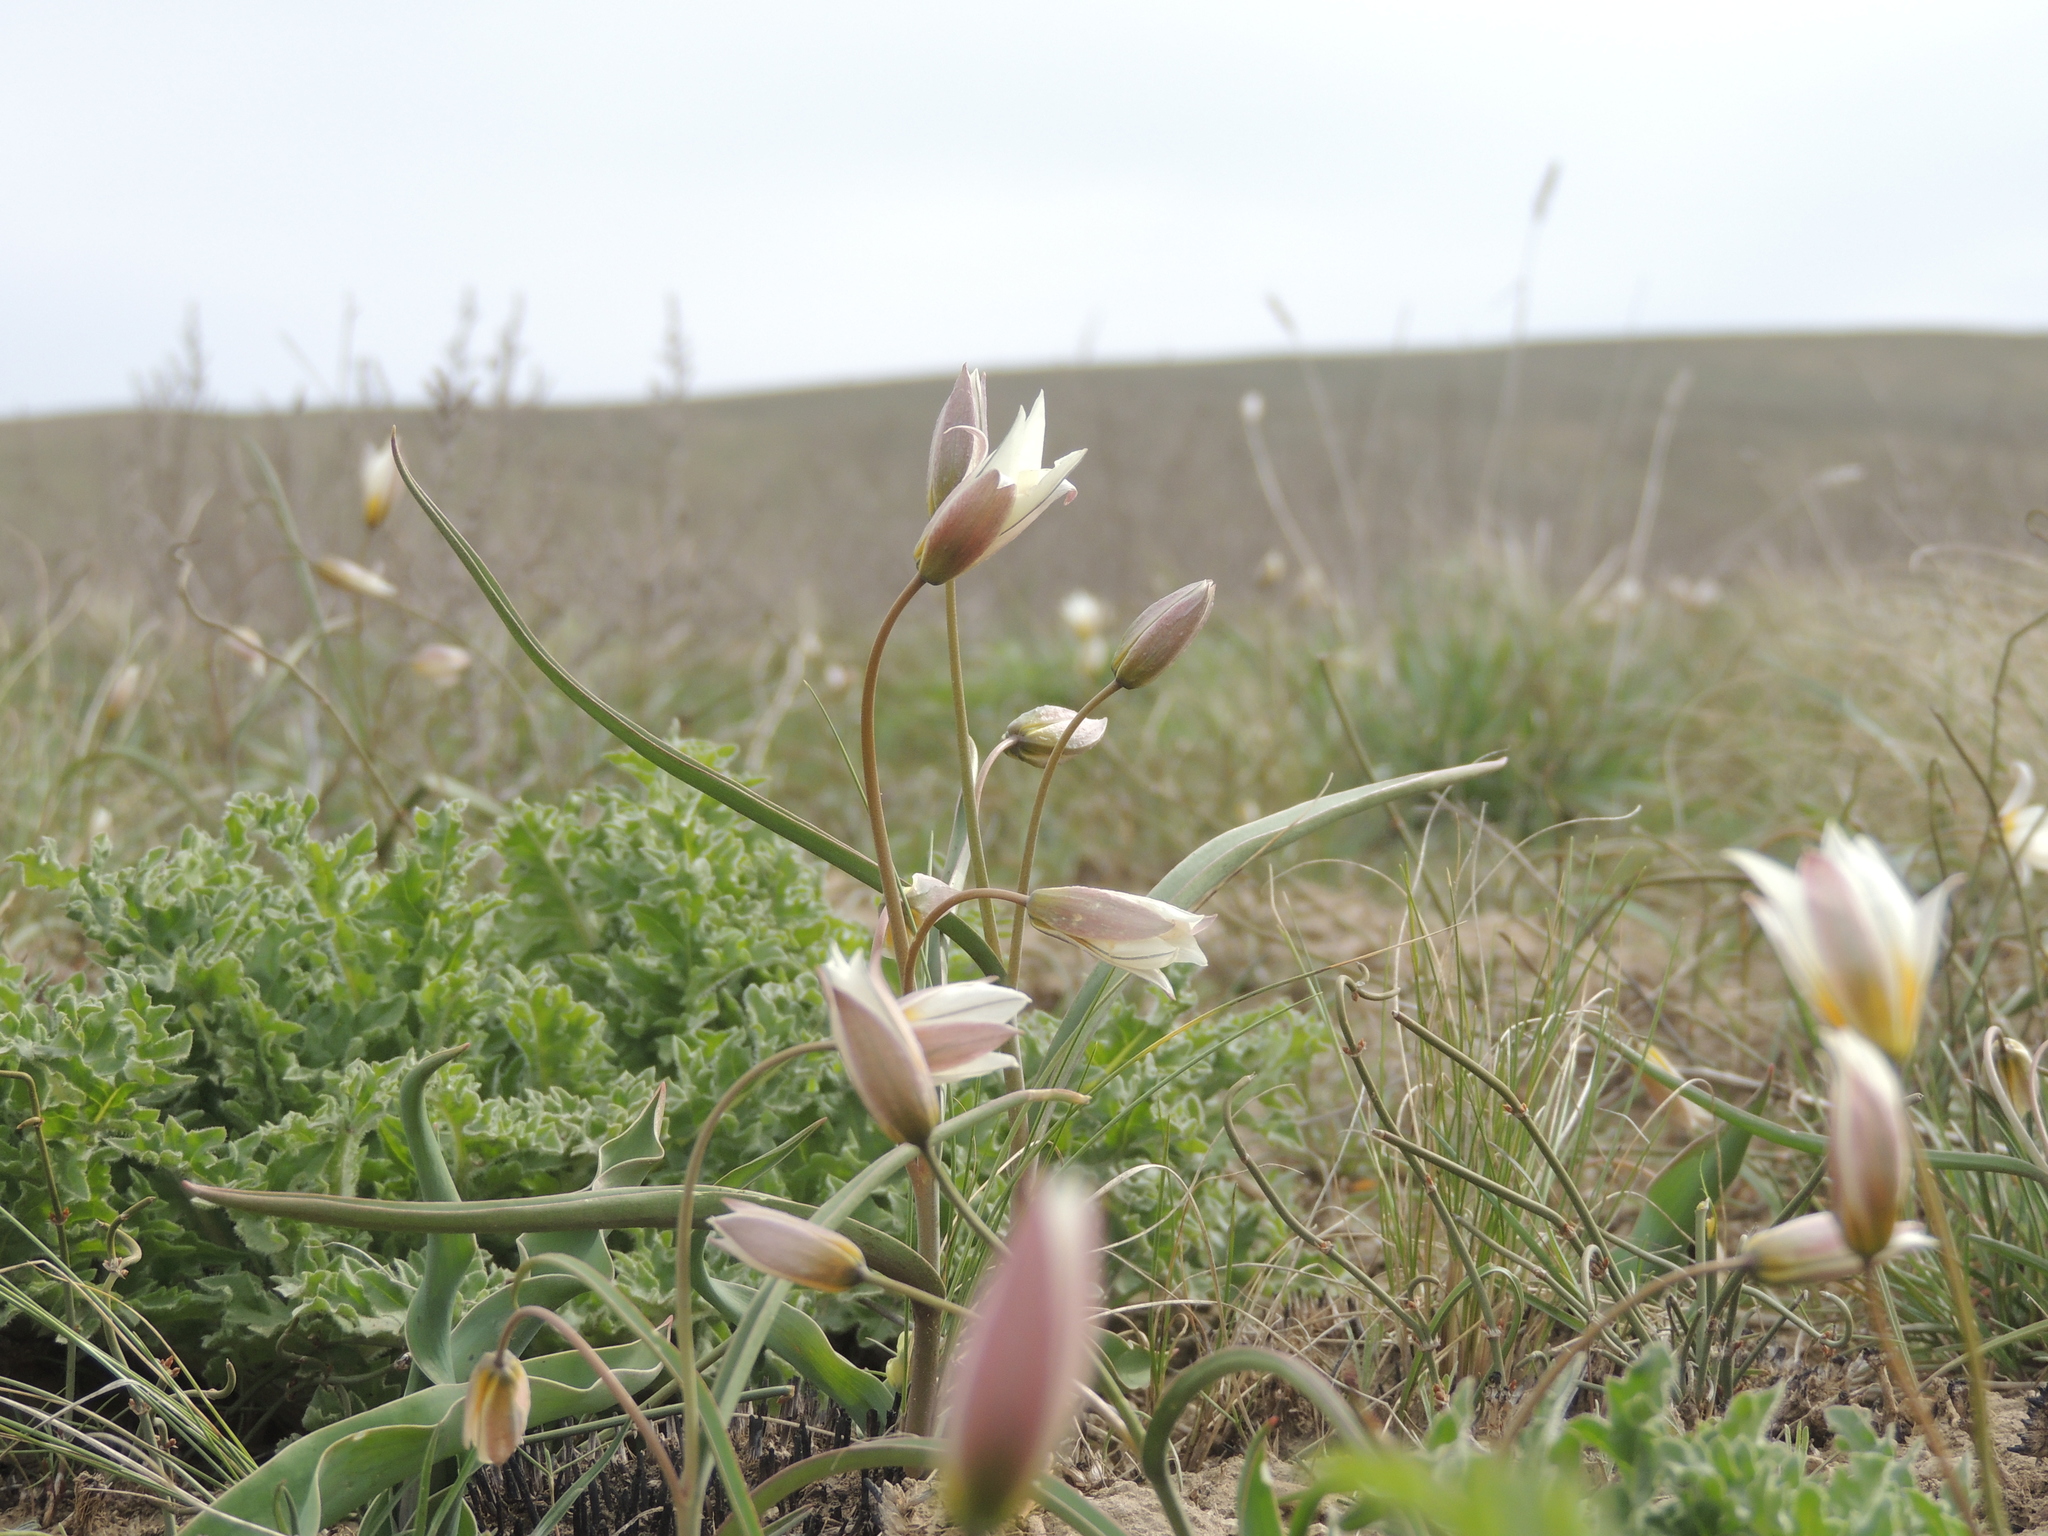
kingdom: Plantae
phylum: Tracheophyta
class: Liliopsida
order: Liliales
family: Liliaceae
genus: Tulipa
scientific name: Tulipa biflora
